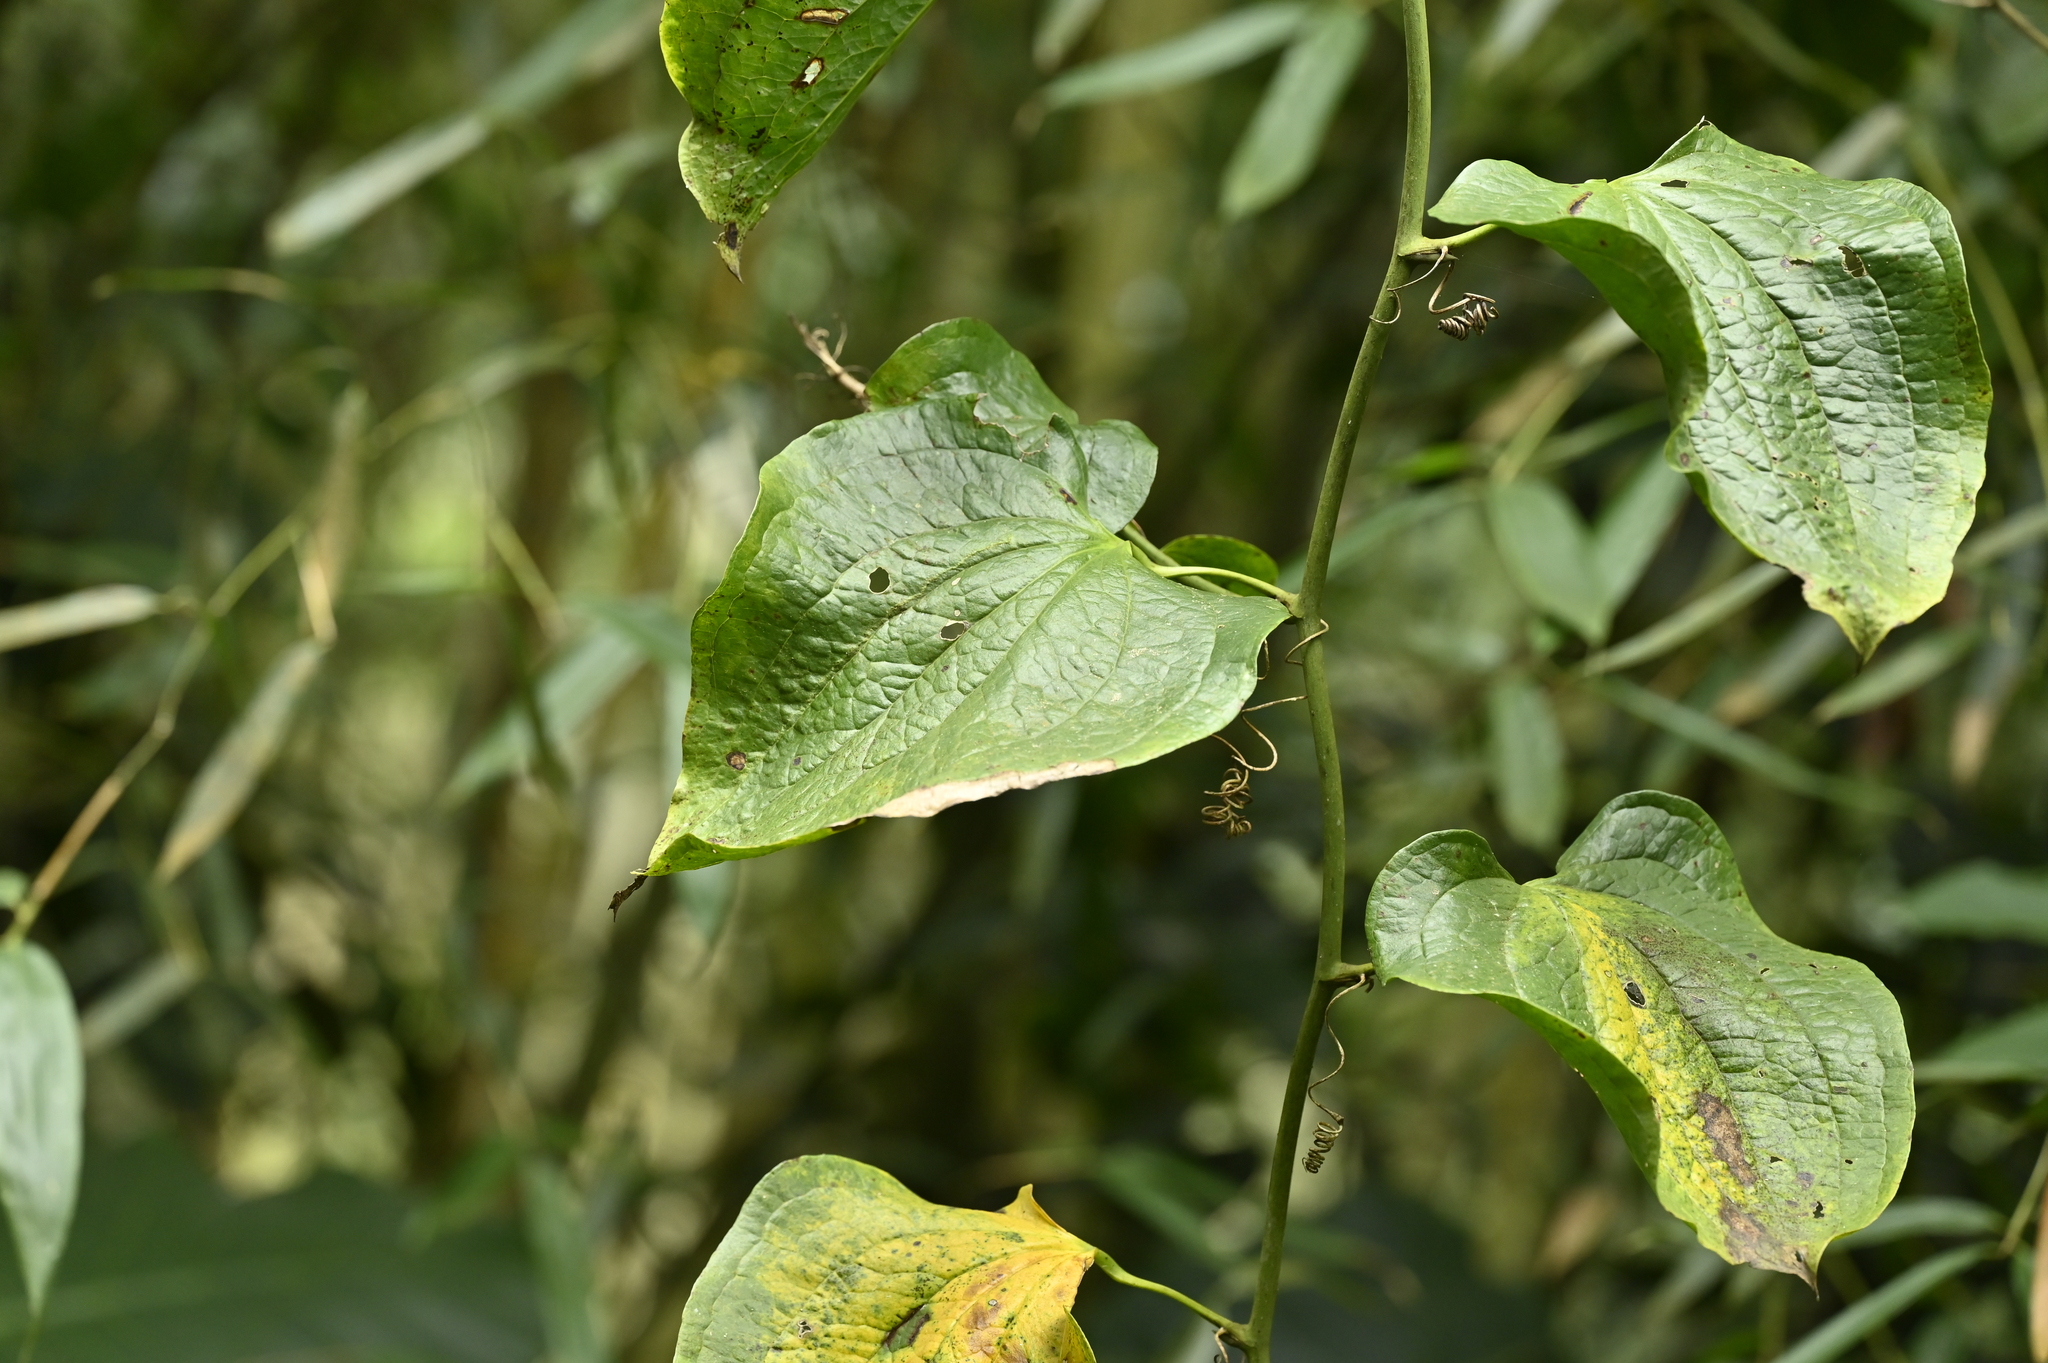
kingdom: Plantae
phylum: Tracheophyta
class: Liliopsida
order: Liliales
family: Smilacaceae
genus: Smilax
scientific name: Smilax riparia
